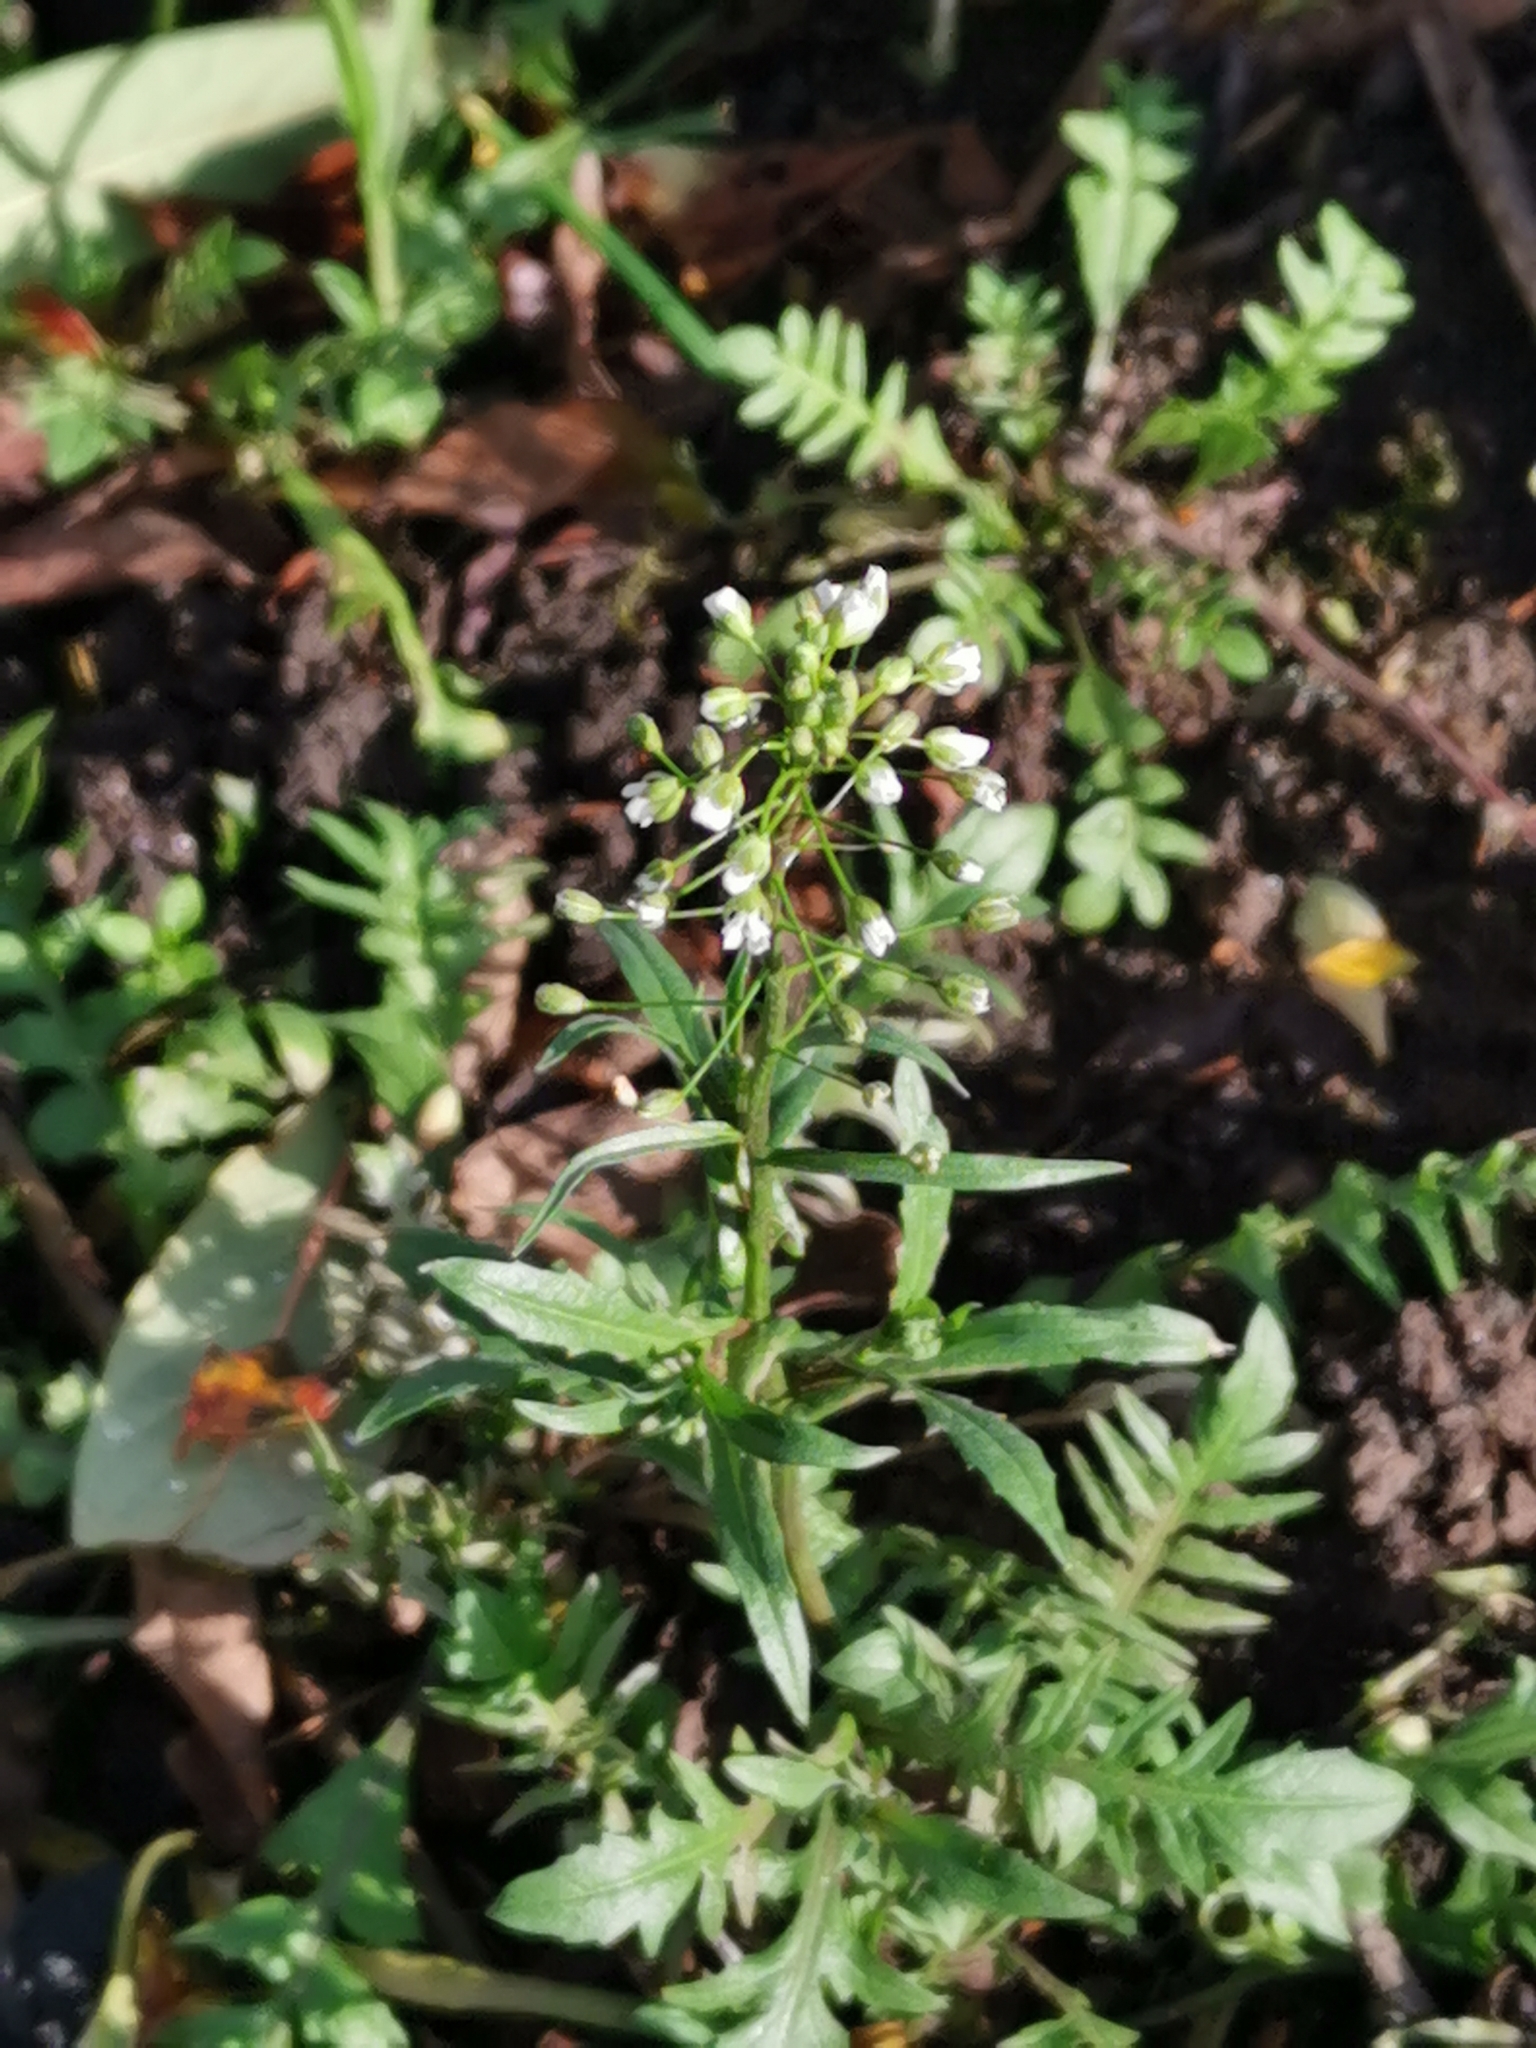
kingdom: Plantae
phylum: Tracheophyta
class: Magnoliopsida
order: Brassicales
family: Brassicaceae
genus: Capsella
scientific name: Capsella bursa-pastoris
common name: Shepherd's purse
